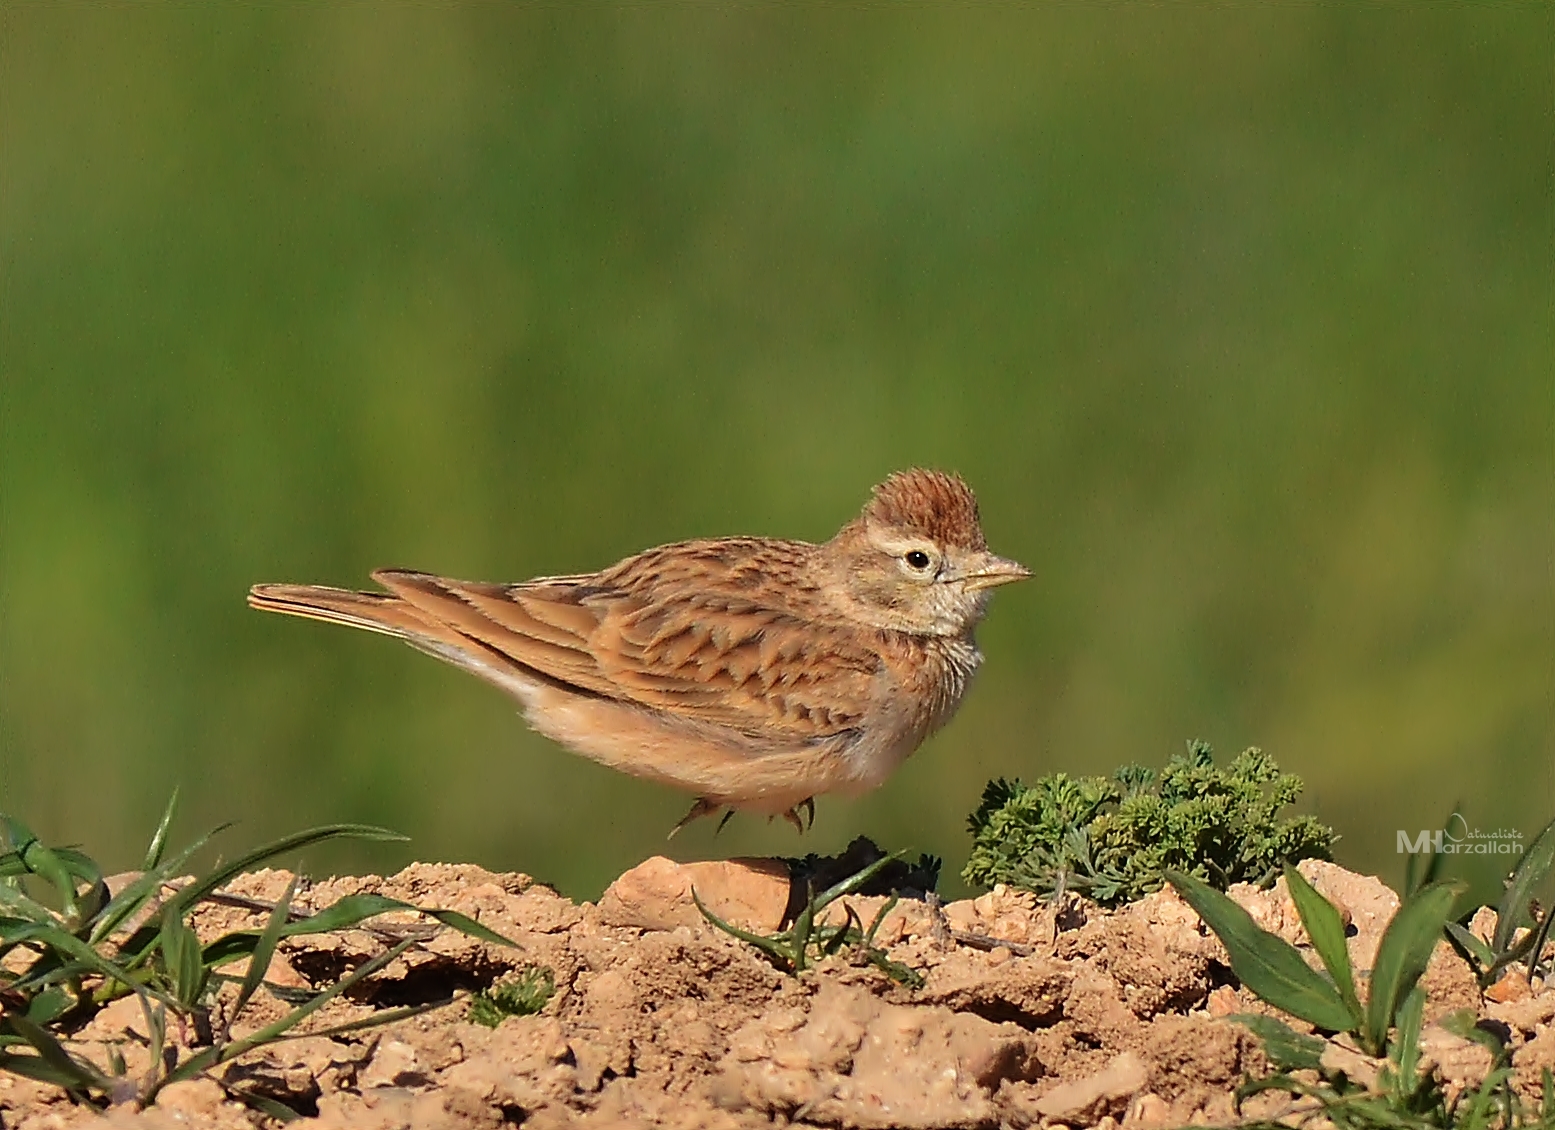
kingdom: Animalia
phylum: Chordata
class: Aves
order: Passeriformes
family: Alaudidae
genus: Calandrella
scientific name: Calandrella brachydactyla
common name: Greater short-toed lark
